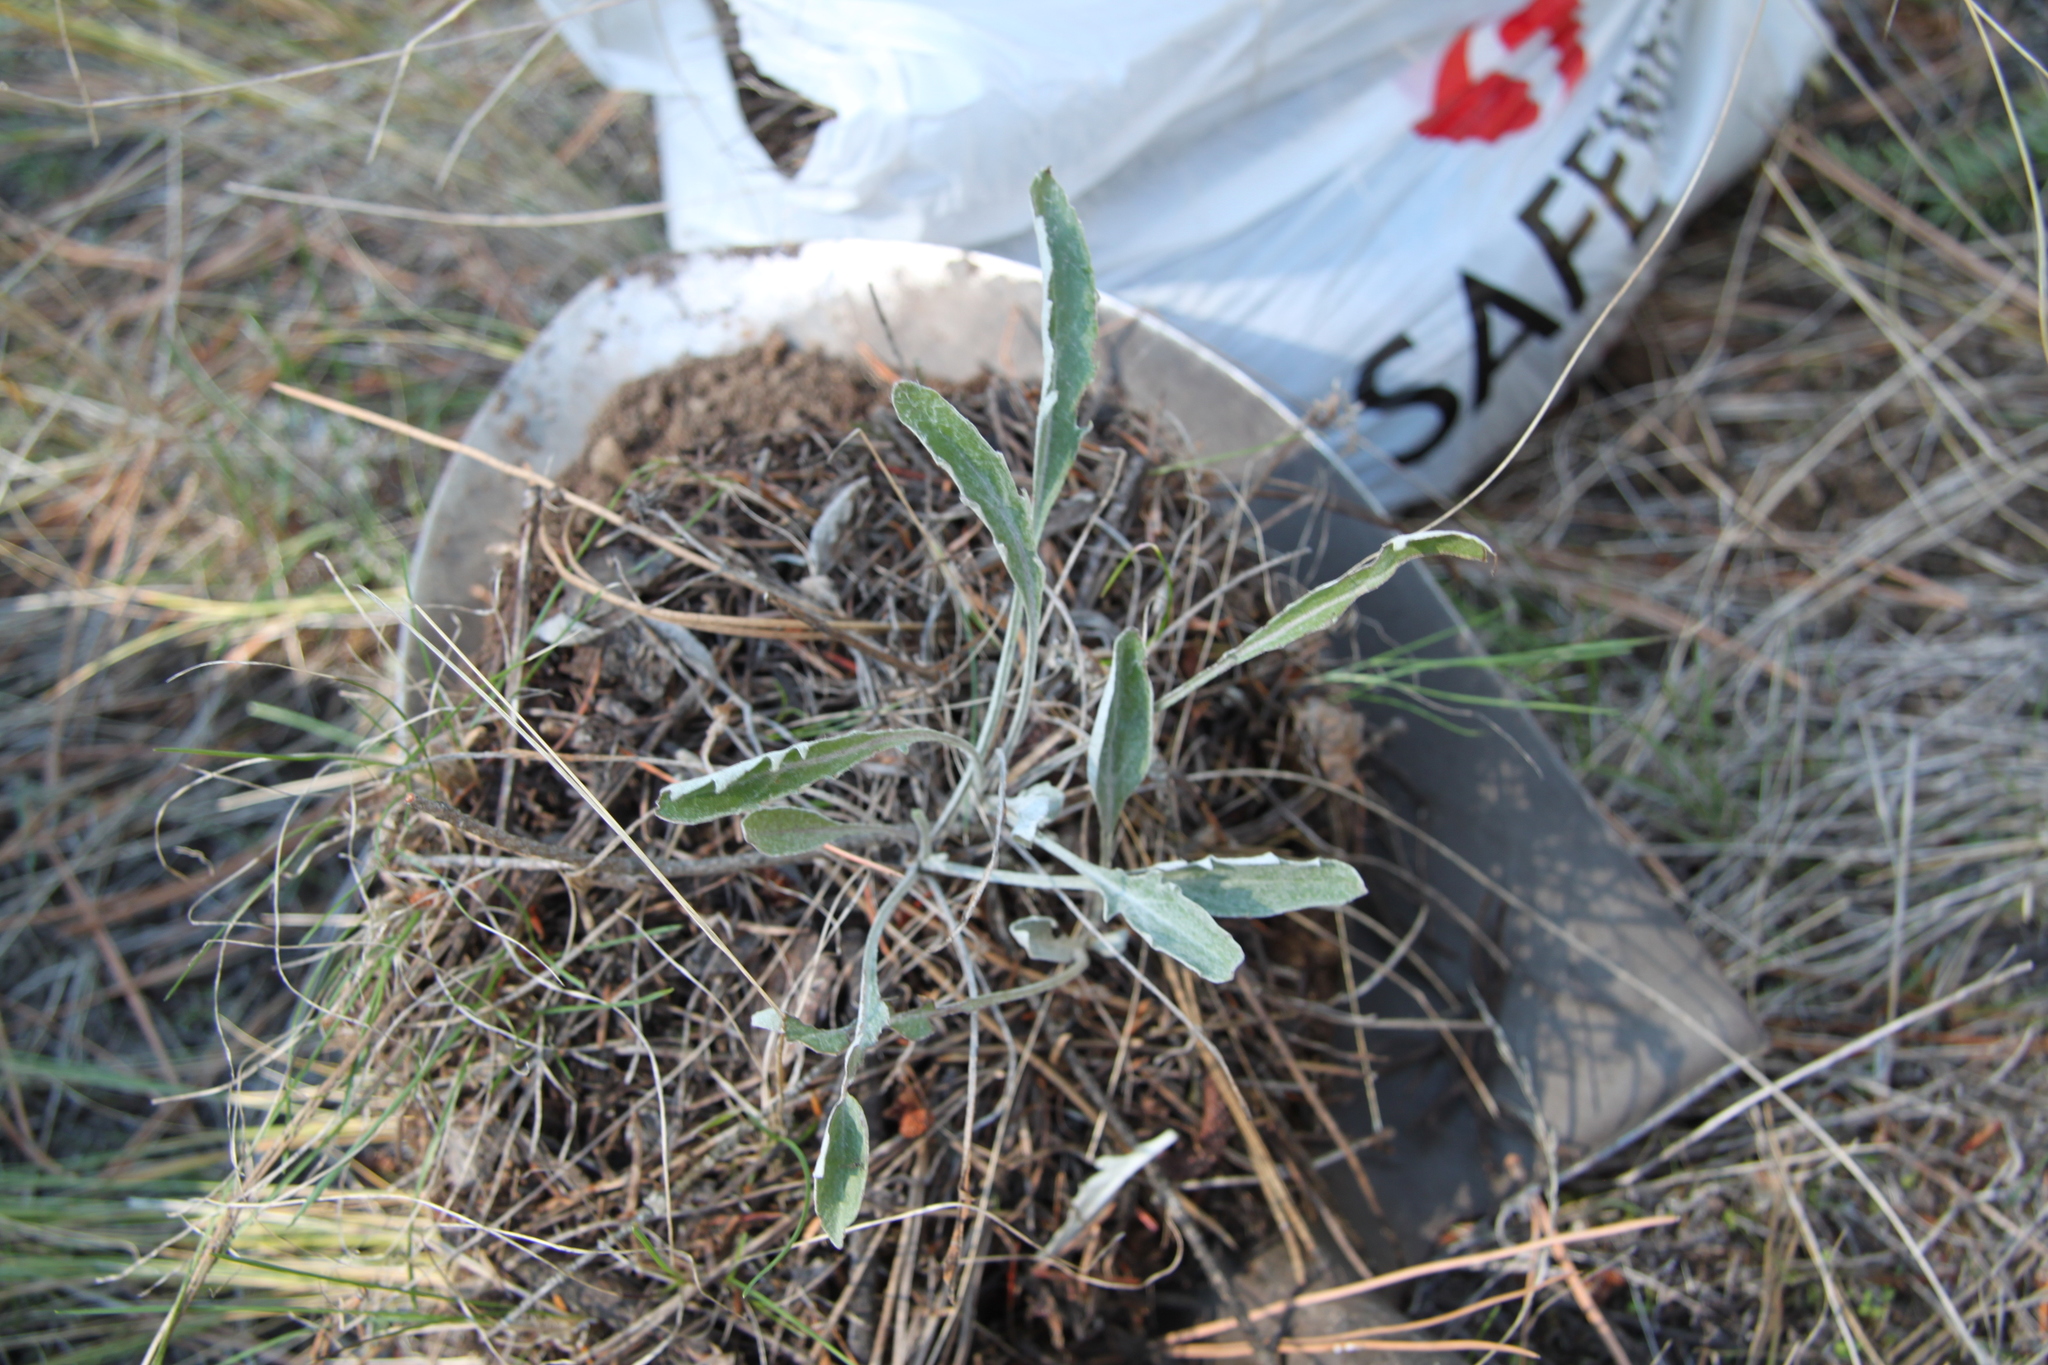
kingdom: Plantae
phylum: Tracheophyta
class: Magnoliopsida
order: Asterales
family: Asteraceae
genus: Gaillardia
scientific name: Gaillardia aristata
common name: Blanket-flower
